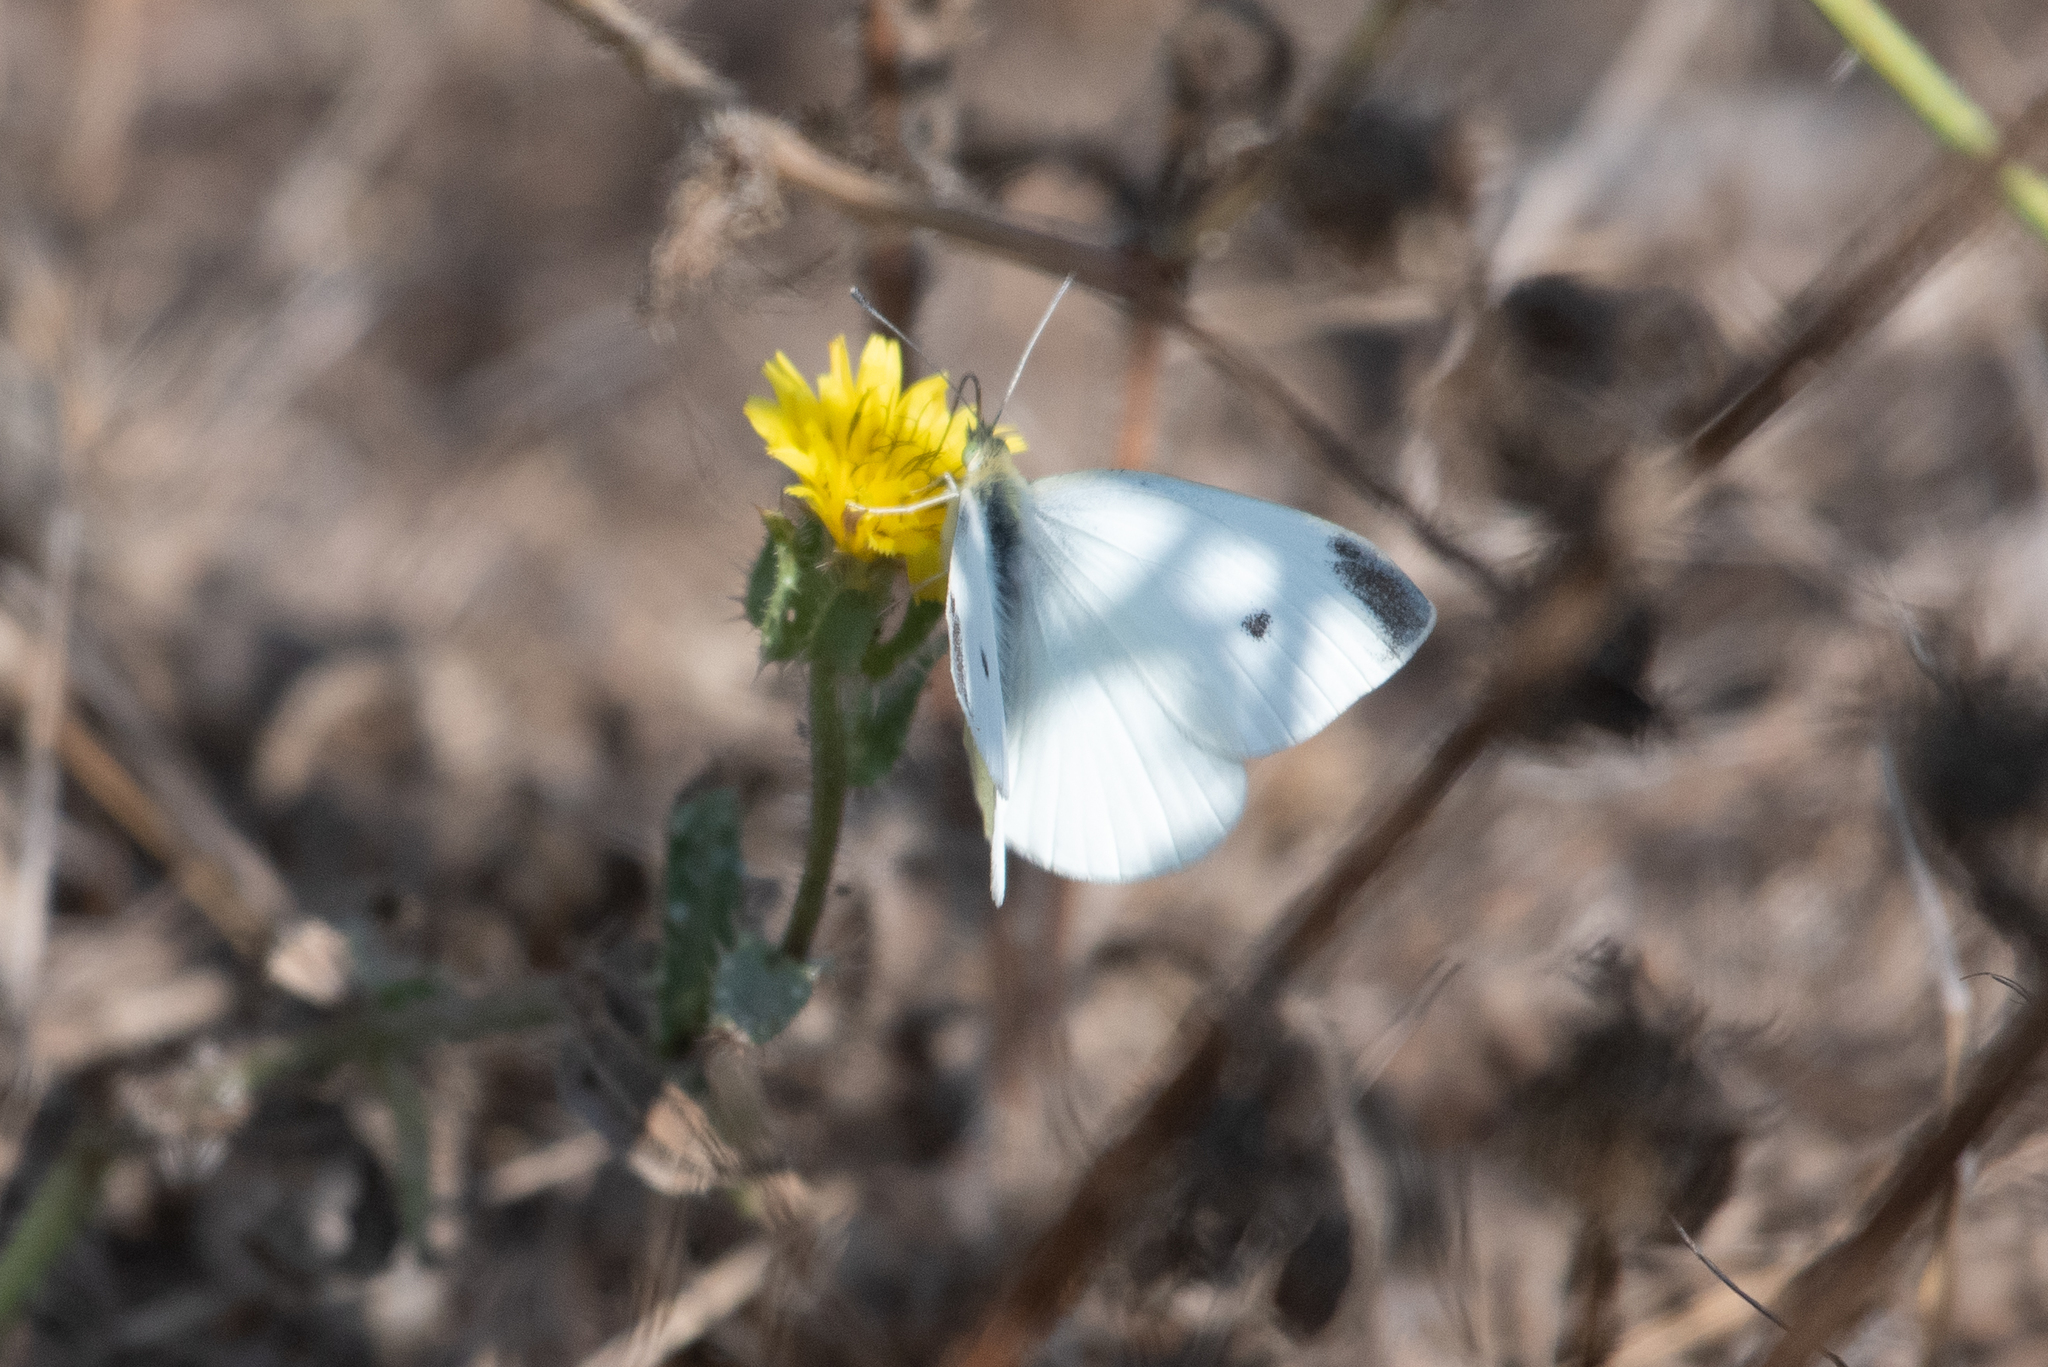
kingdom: Animalia
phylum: Arthropoda
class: Insecta
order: Lepidoptera
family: Pieridae
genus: Pieris
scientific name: Pieris rapae
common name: Small white
